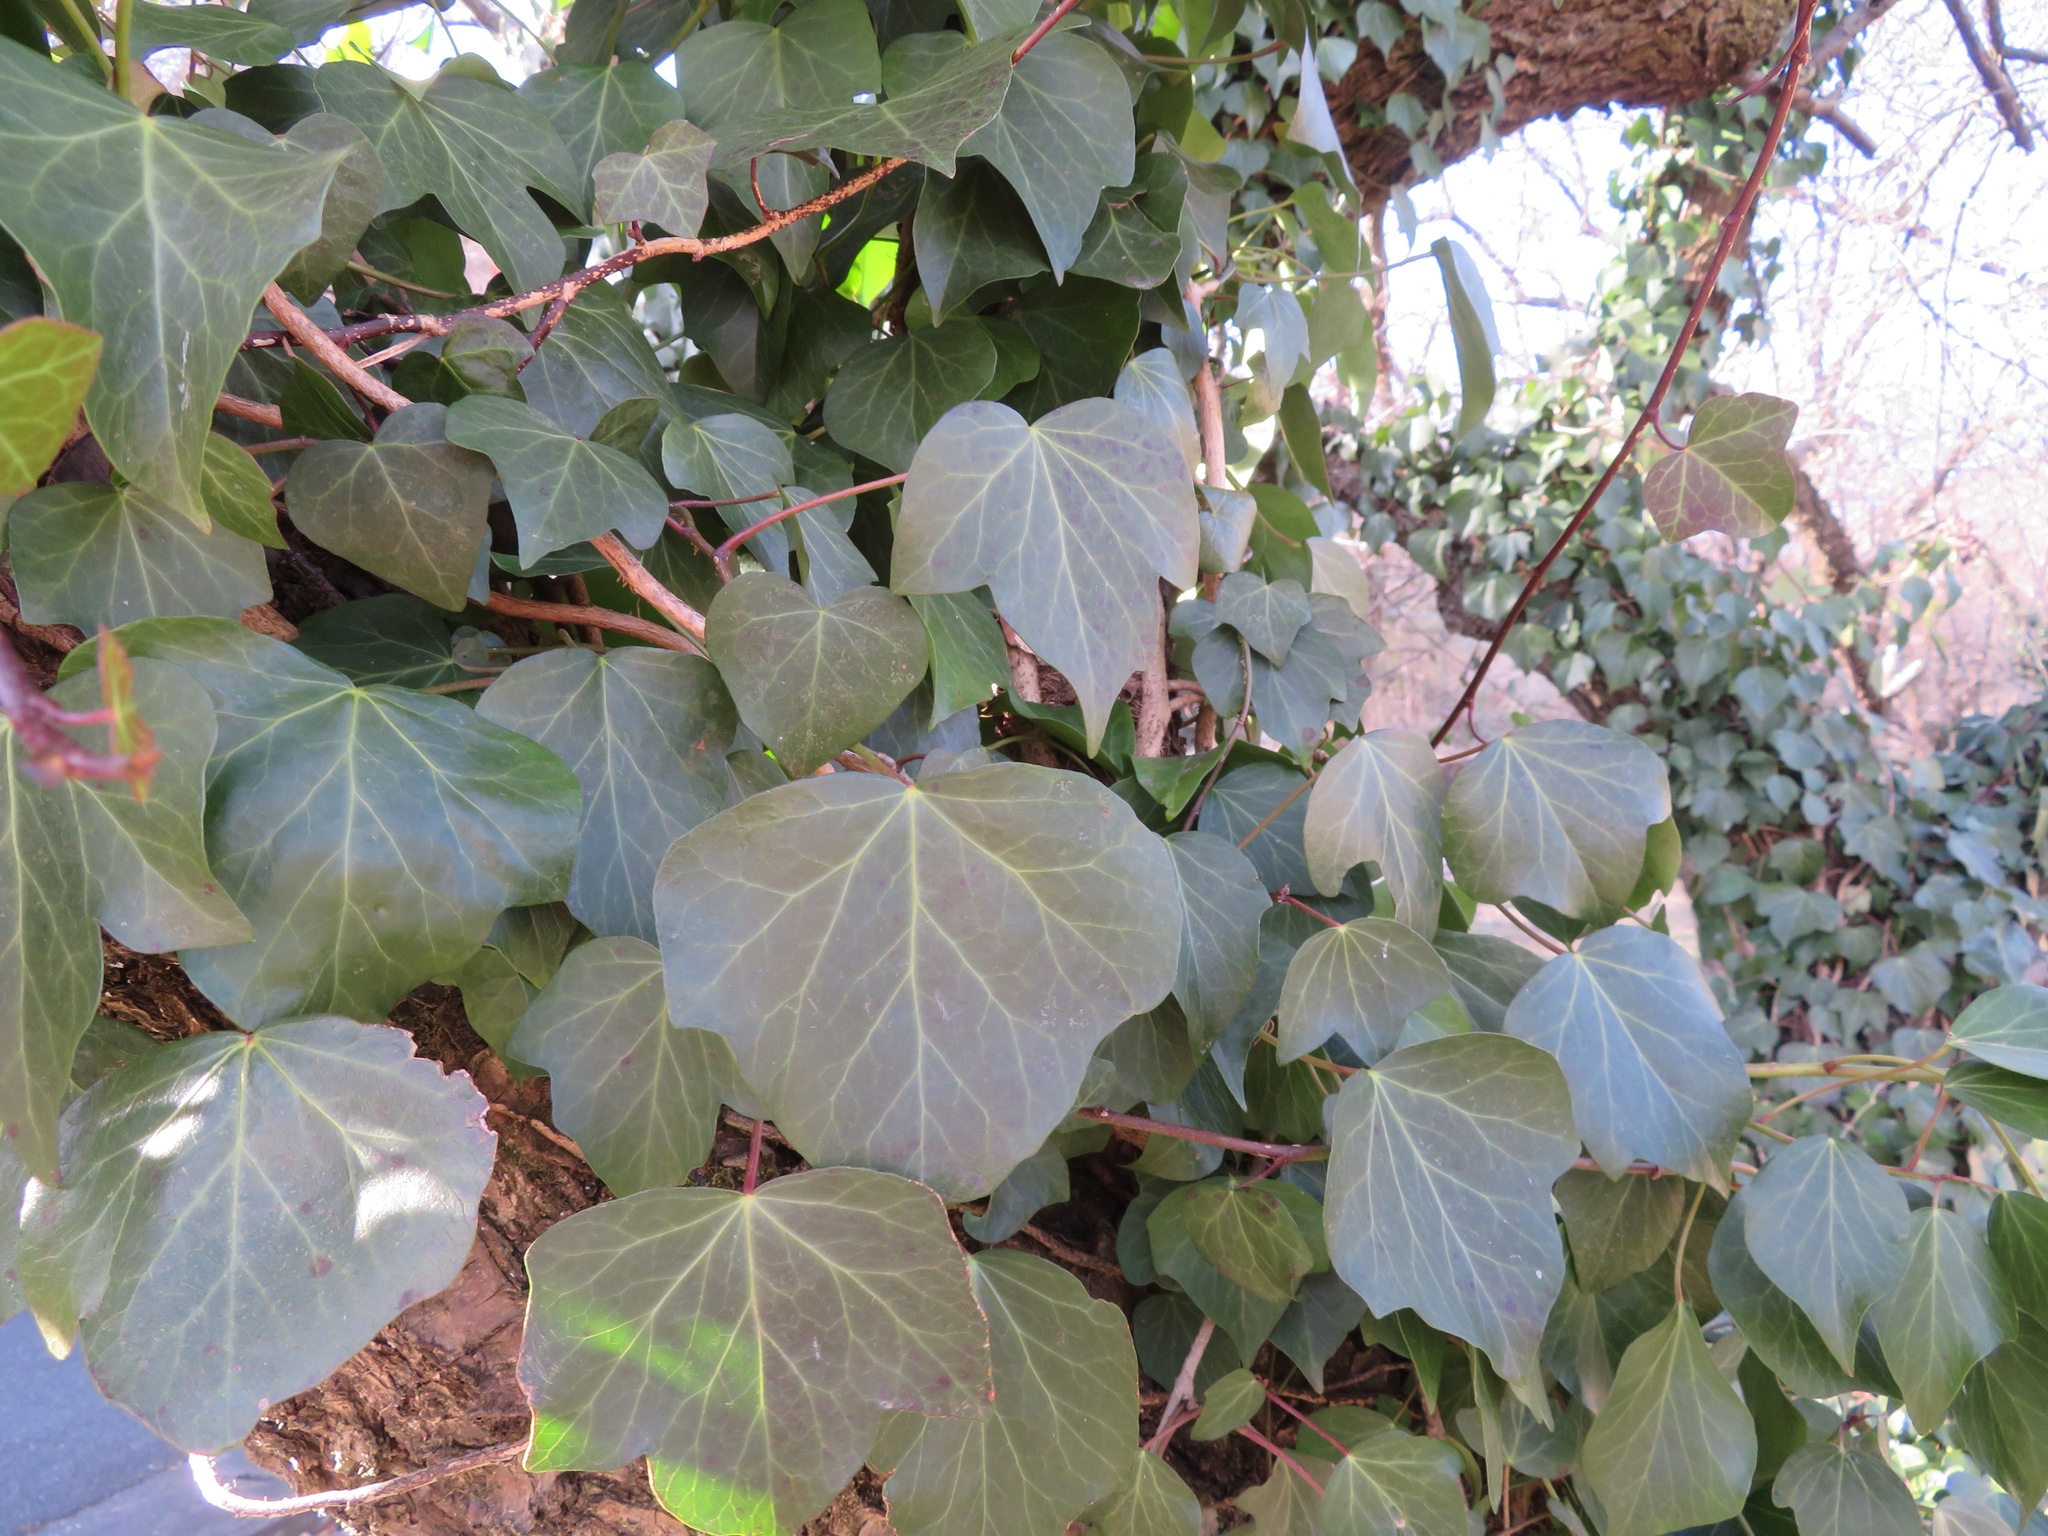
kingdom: Plantae
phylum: Tracheophyta
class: Magnoliopsida
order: Apiales
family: Araliaceae
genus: Hedera
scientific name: Hedera rhombea
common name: Japanese ivy
